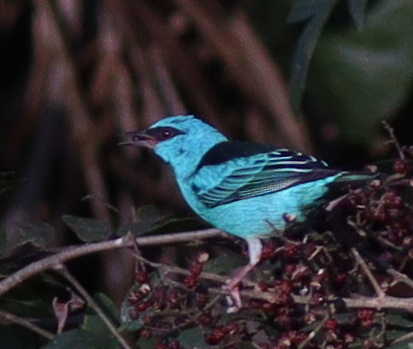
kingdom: Animalia
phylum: Chordata
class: Aves
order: Passeriformes
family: Thraupidae
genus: Dacnis
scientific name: Dacnis cayana
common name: Blue dacnis
